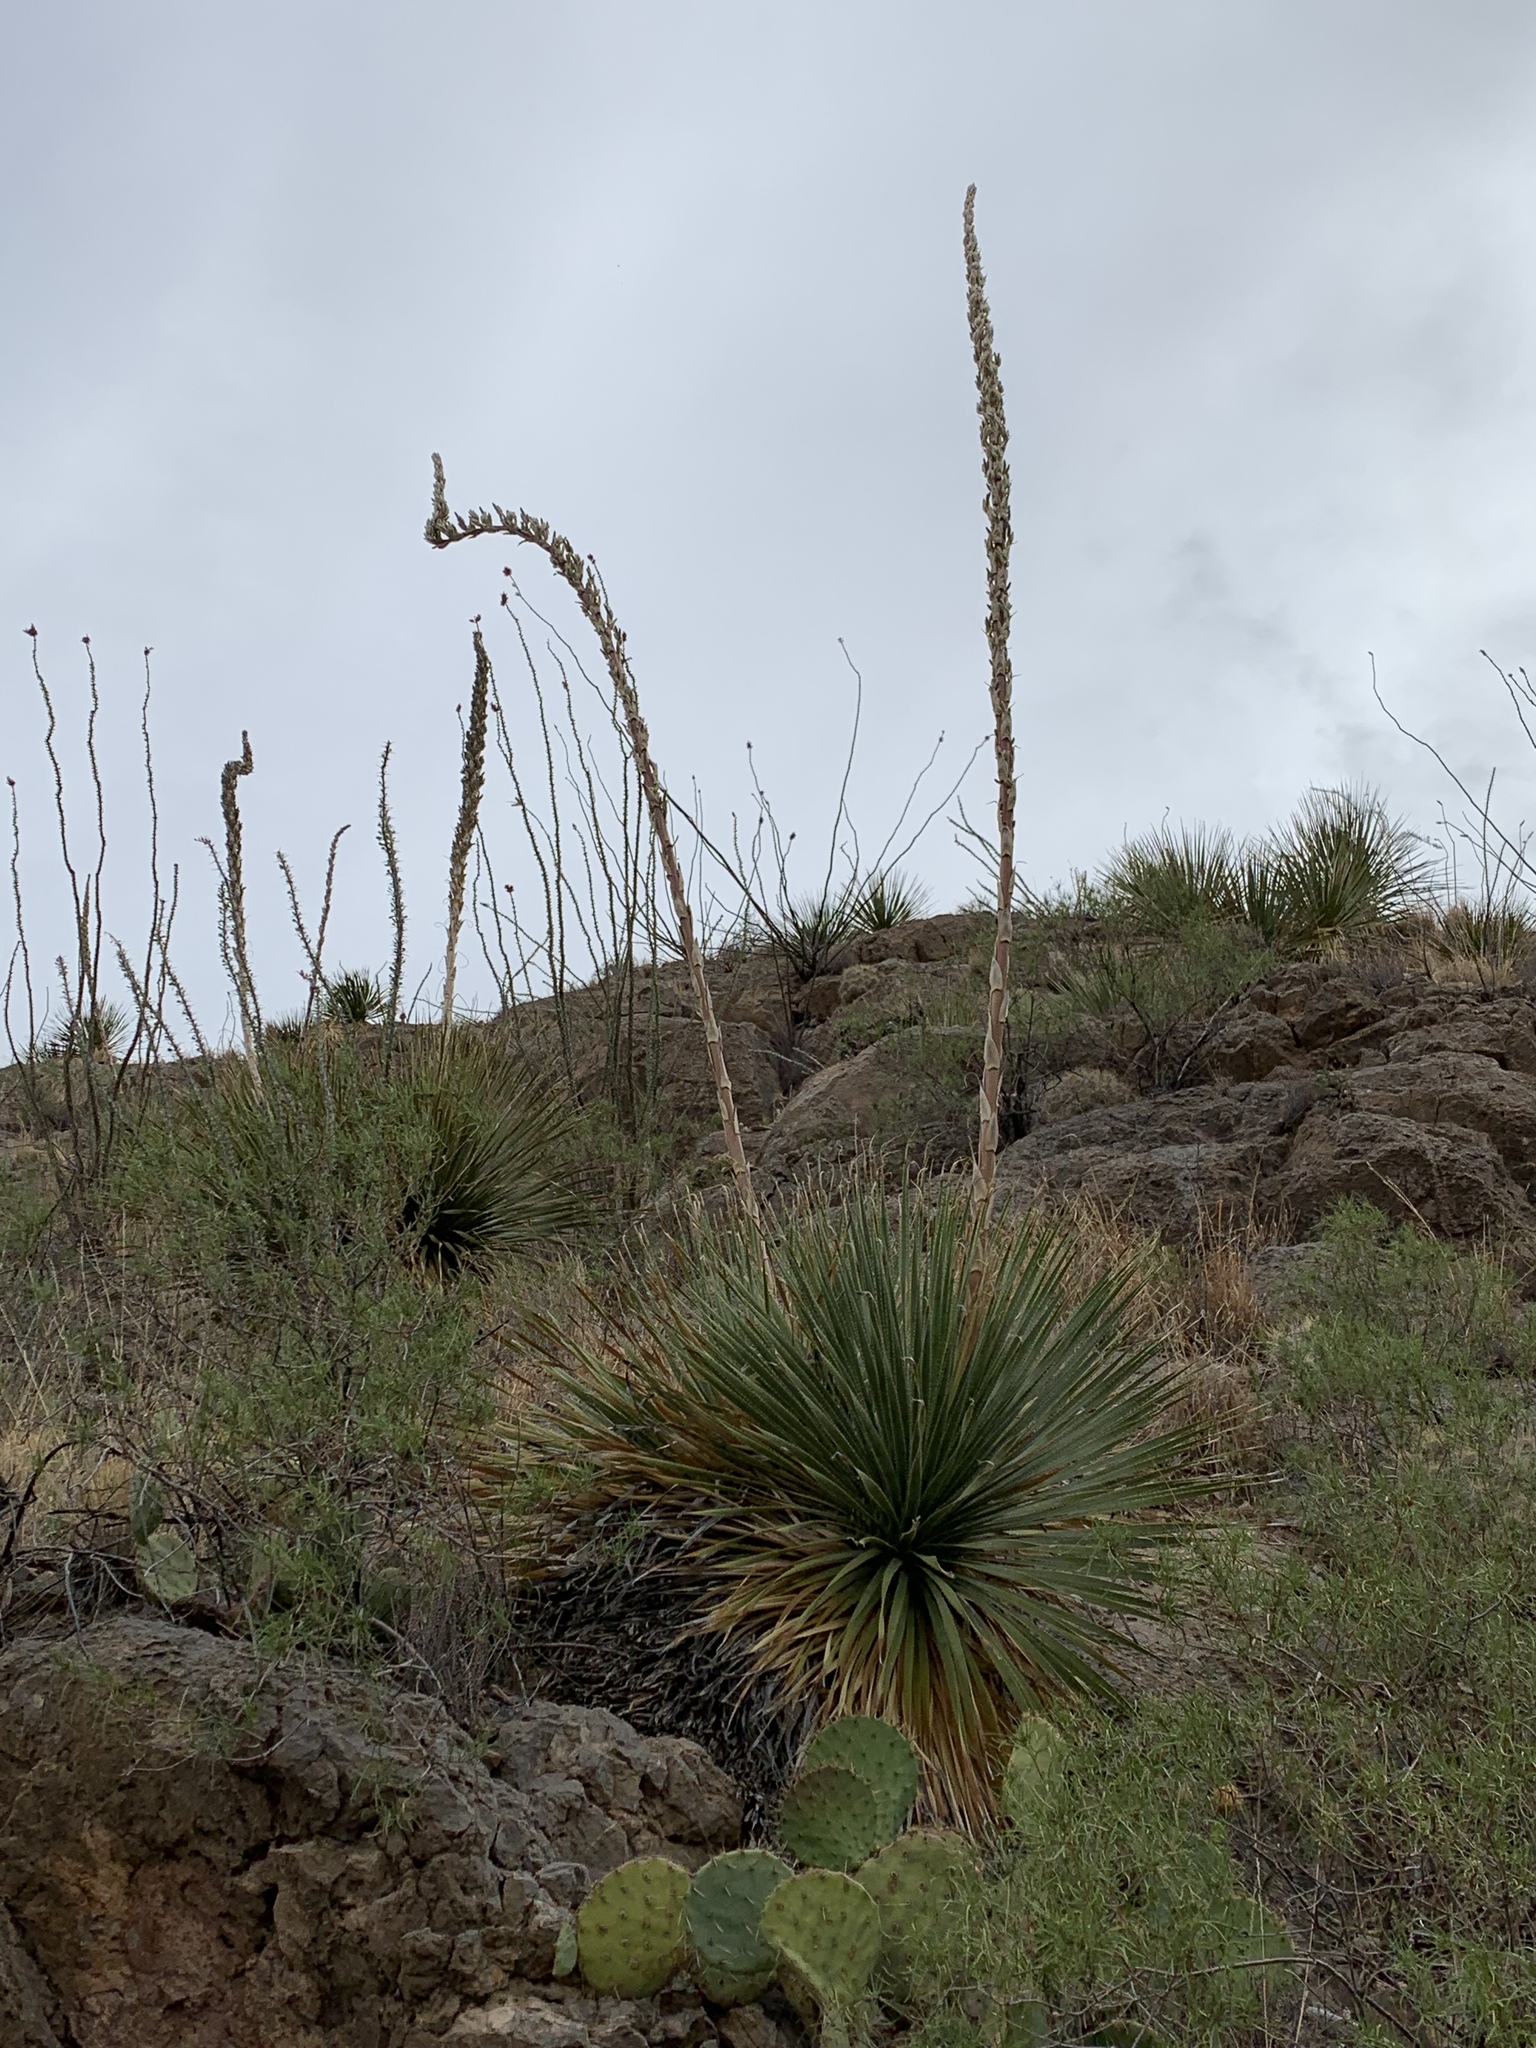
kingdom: Plantae
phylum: Tracheophyta
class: Liliopsida
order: Asparagales
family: Asparagaceae
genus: Dasylirion
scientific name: Dasylirion wheeleri
